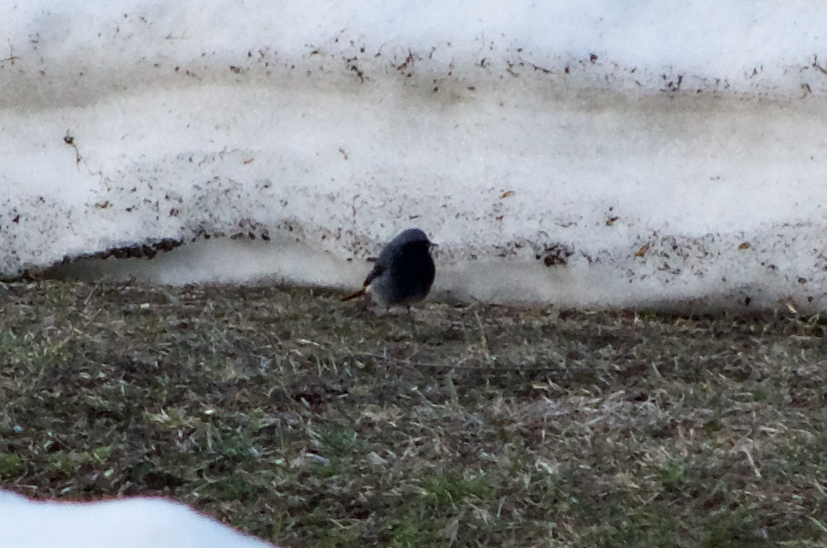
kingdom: Animalia
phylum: Chordata
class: Aves
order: Passeriformes
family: Muscicapidae
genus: Phoenicurus
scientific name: Phoenicurus ochruros
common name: Black redstart
